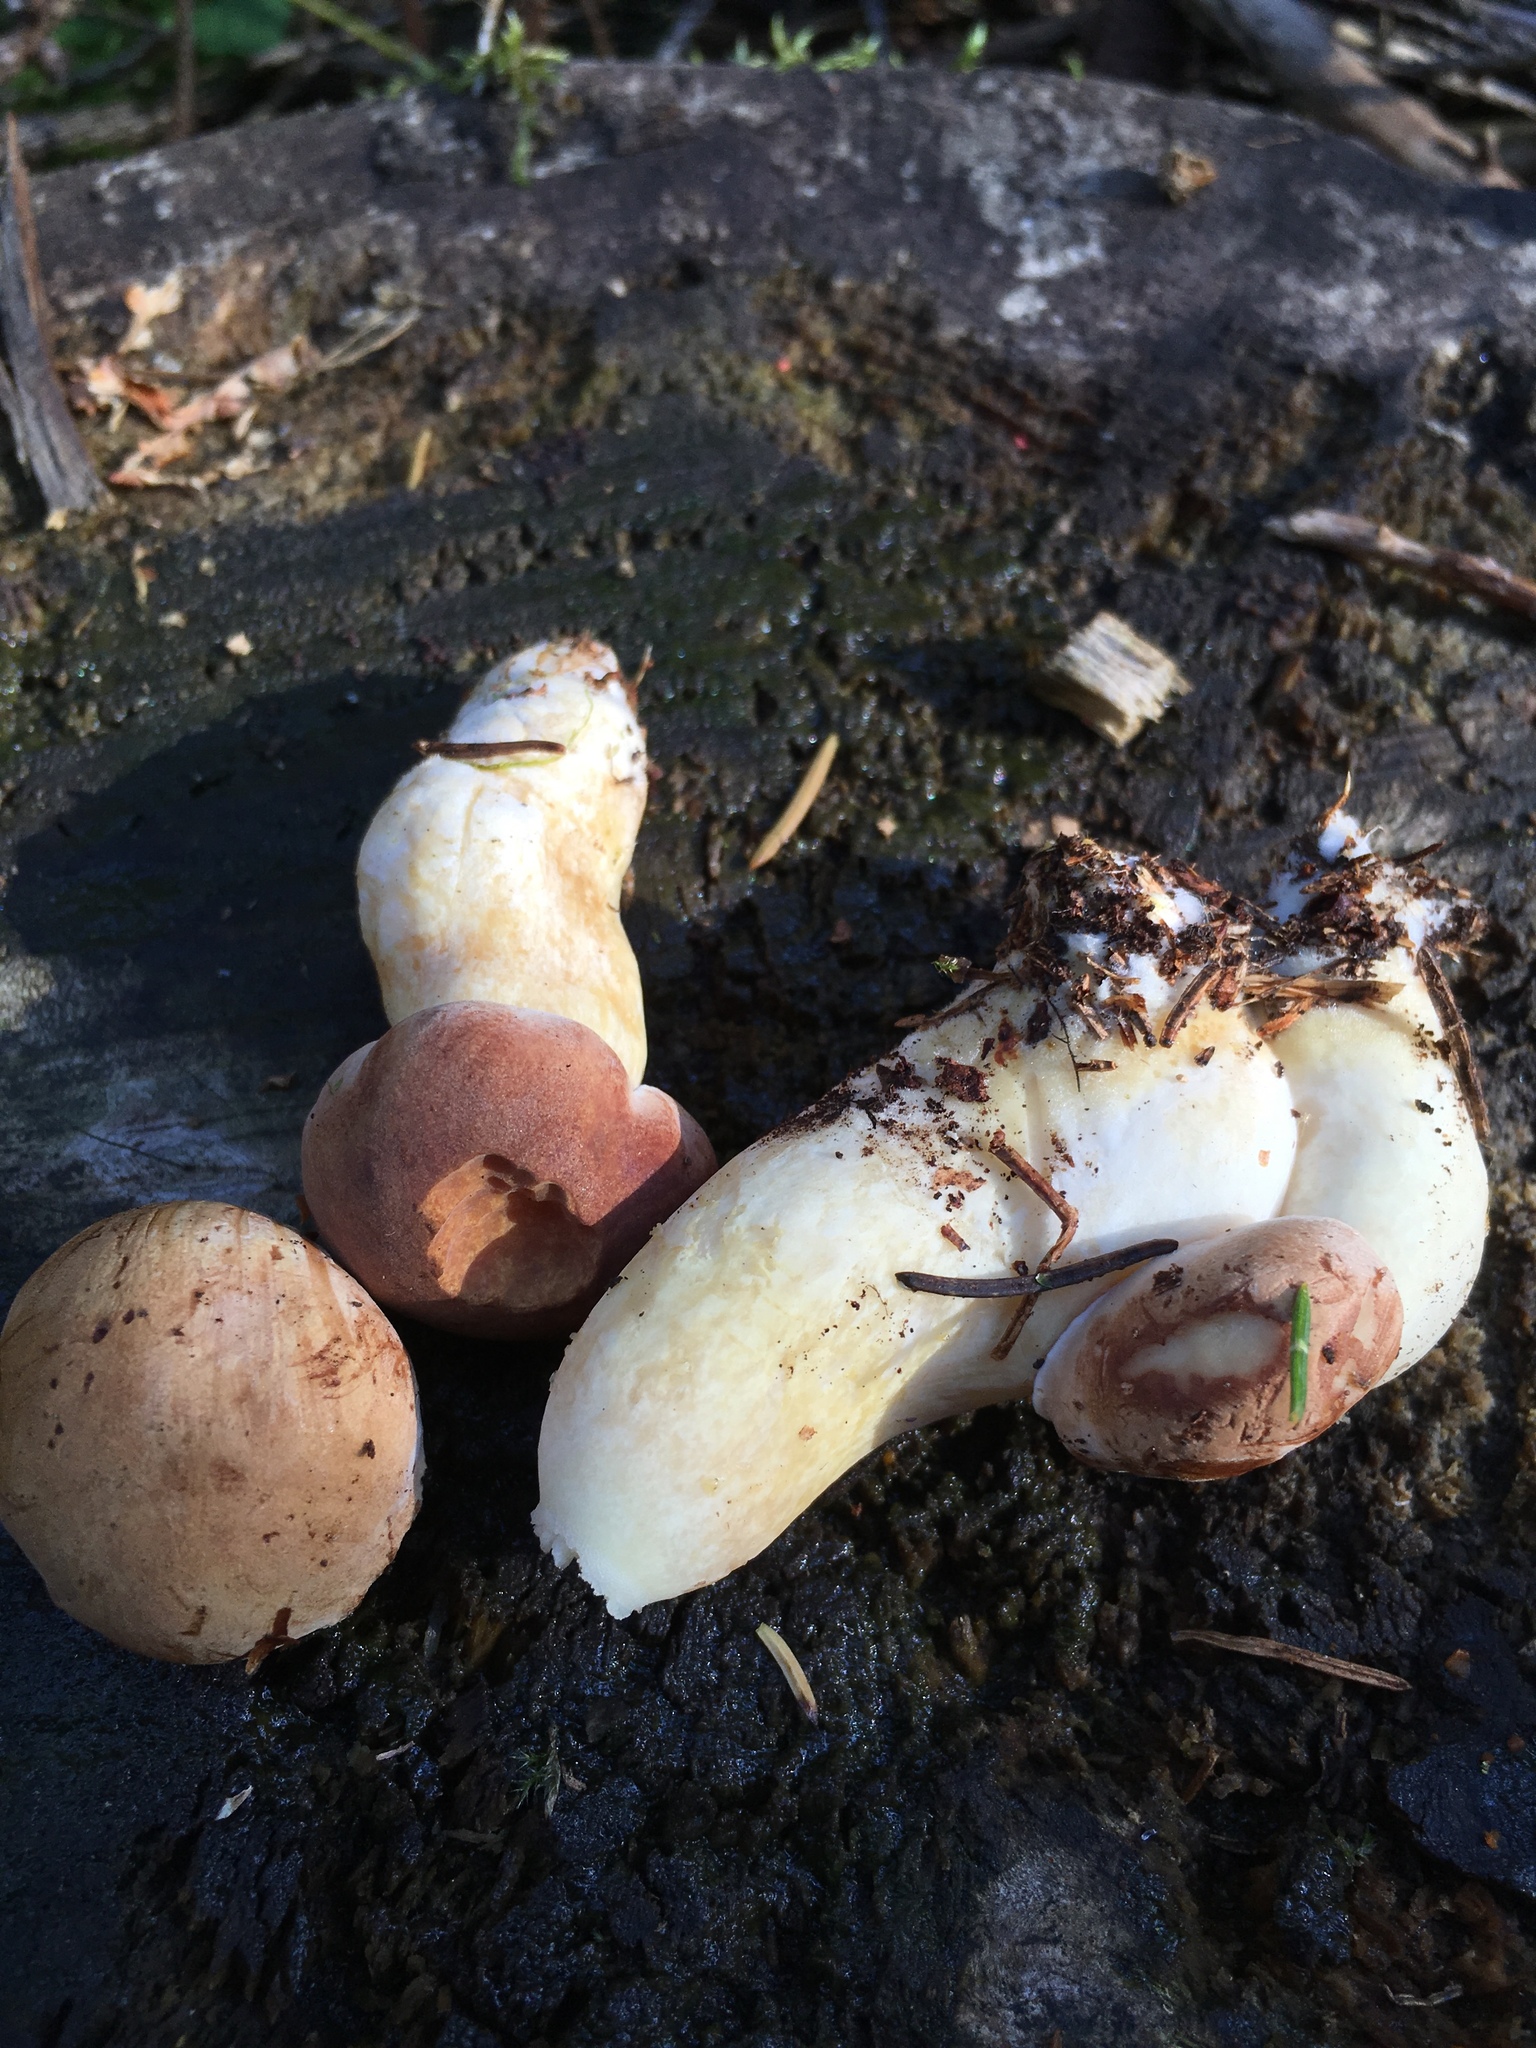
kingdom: Fungi
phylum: Basidiomycota
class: Agaricomycetes
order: Boletales
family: Boletaceae
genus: Imleria
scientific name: Imleria badia
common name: Bay bolete
